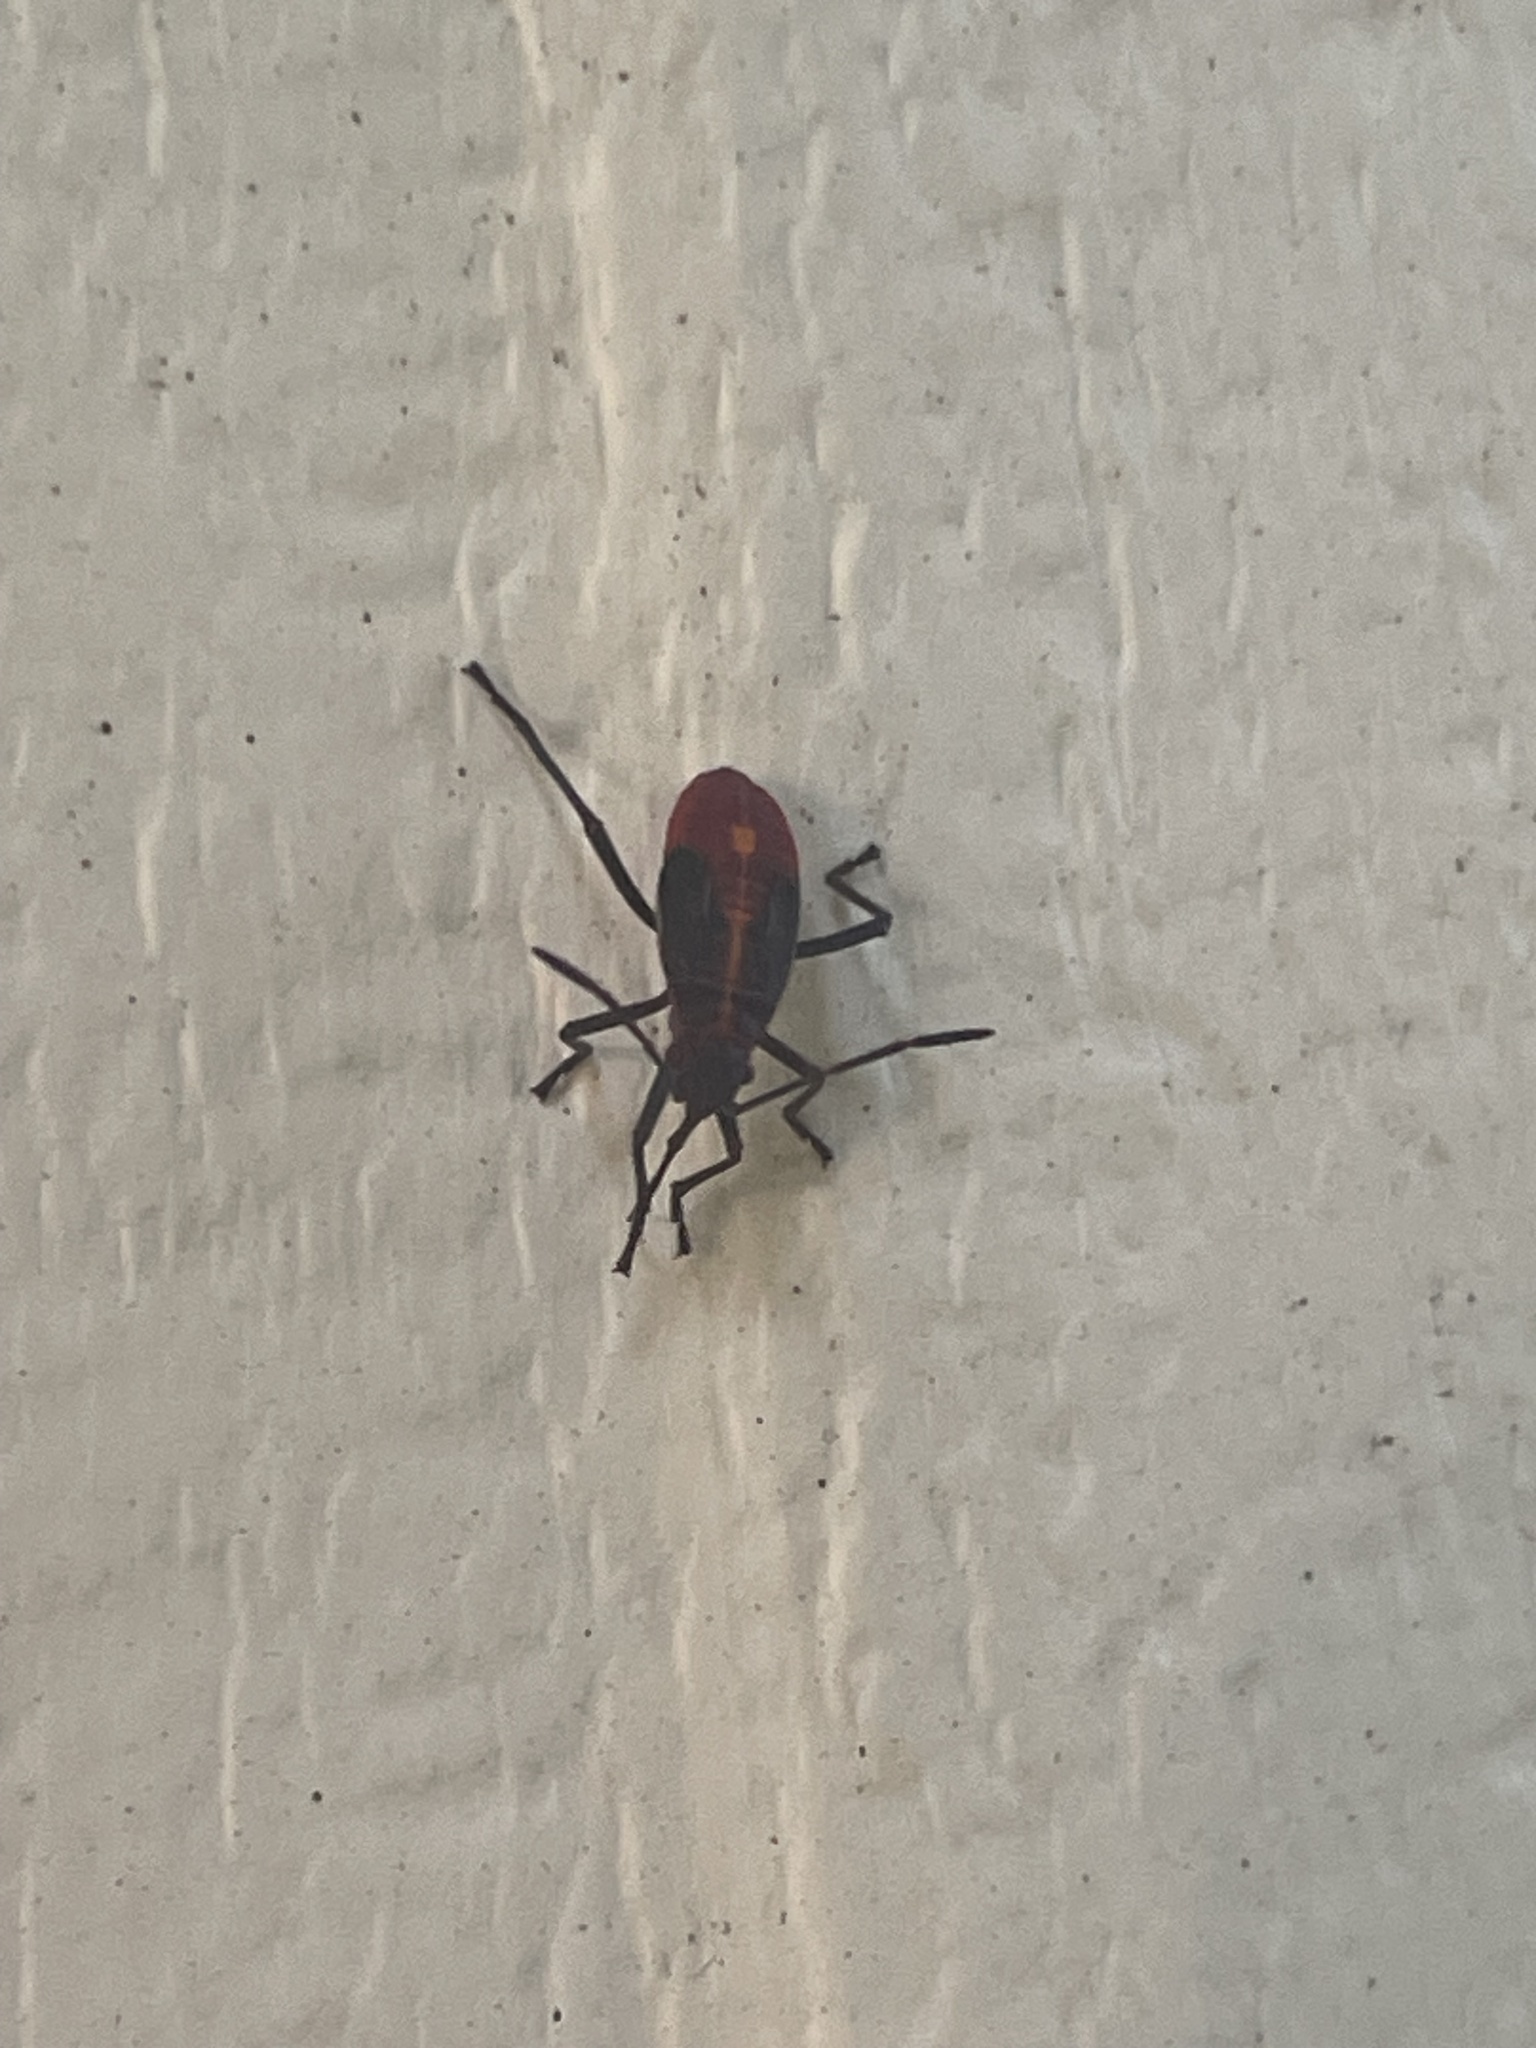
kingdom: Animalia
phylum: Arthropoda
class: Insecta
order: Hemiptera
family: Rhopalidae
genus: Boisea
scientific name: Boisea trivittata
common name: Boxelder bug
